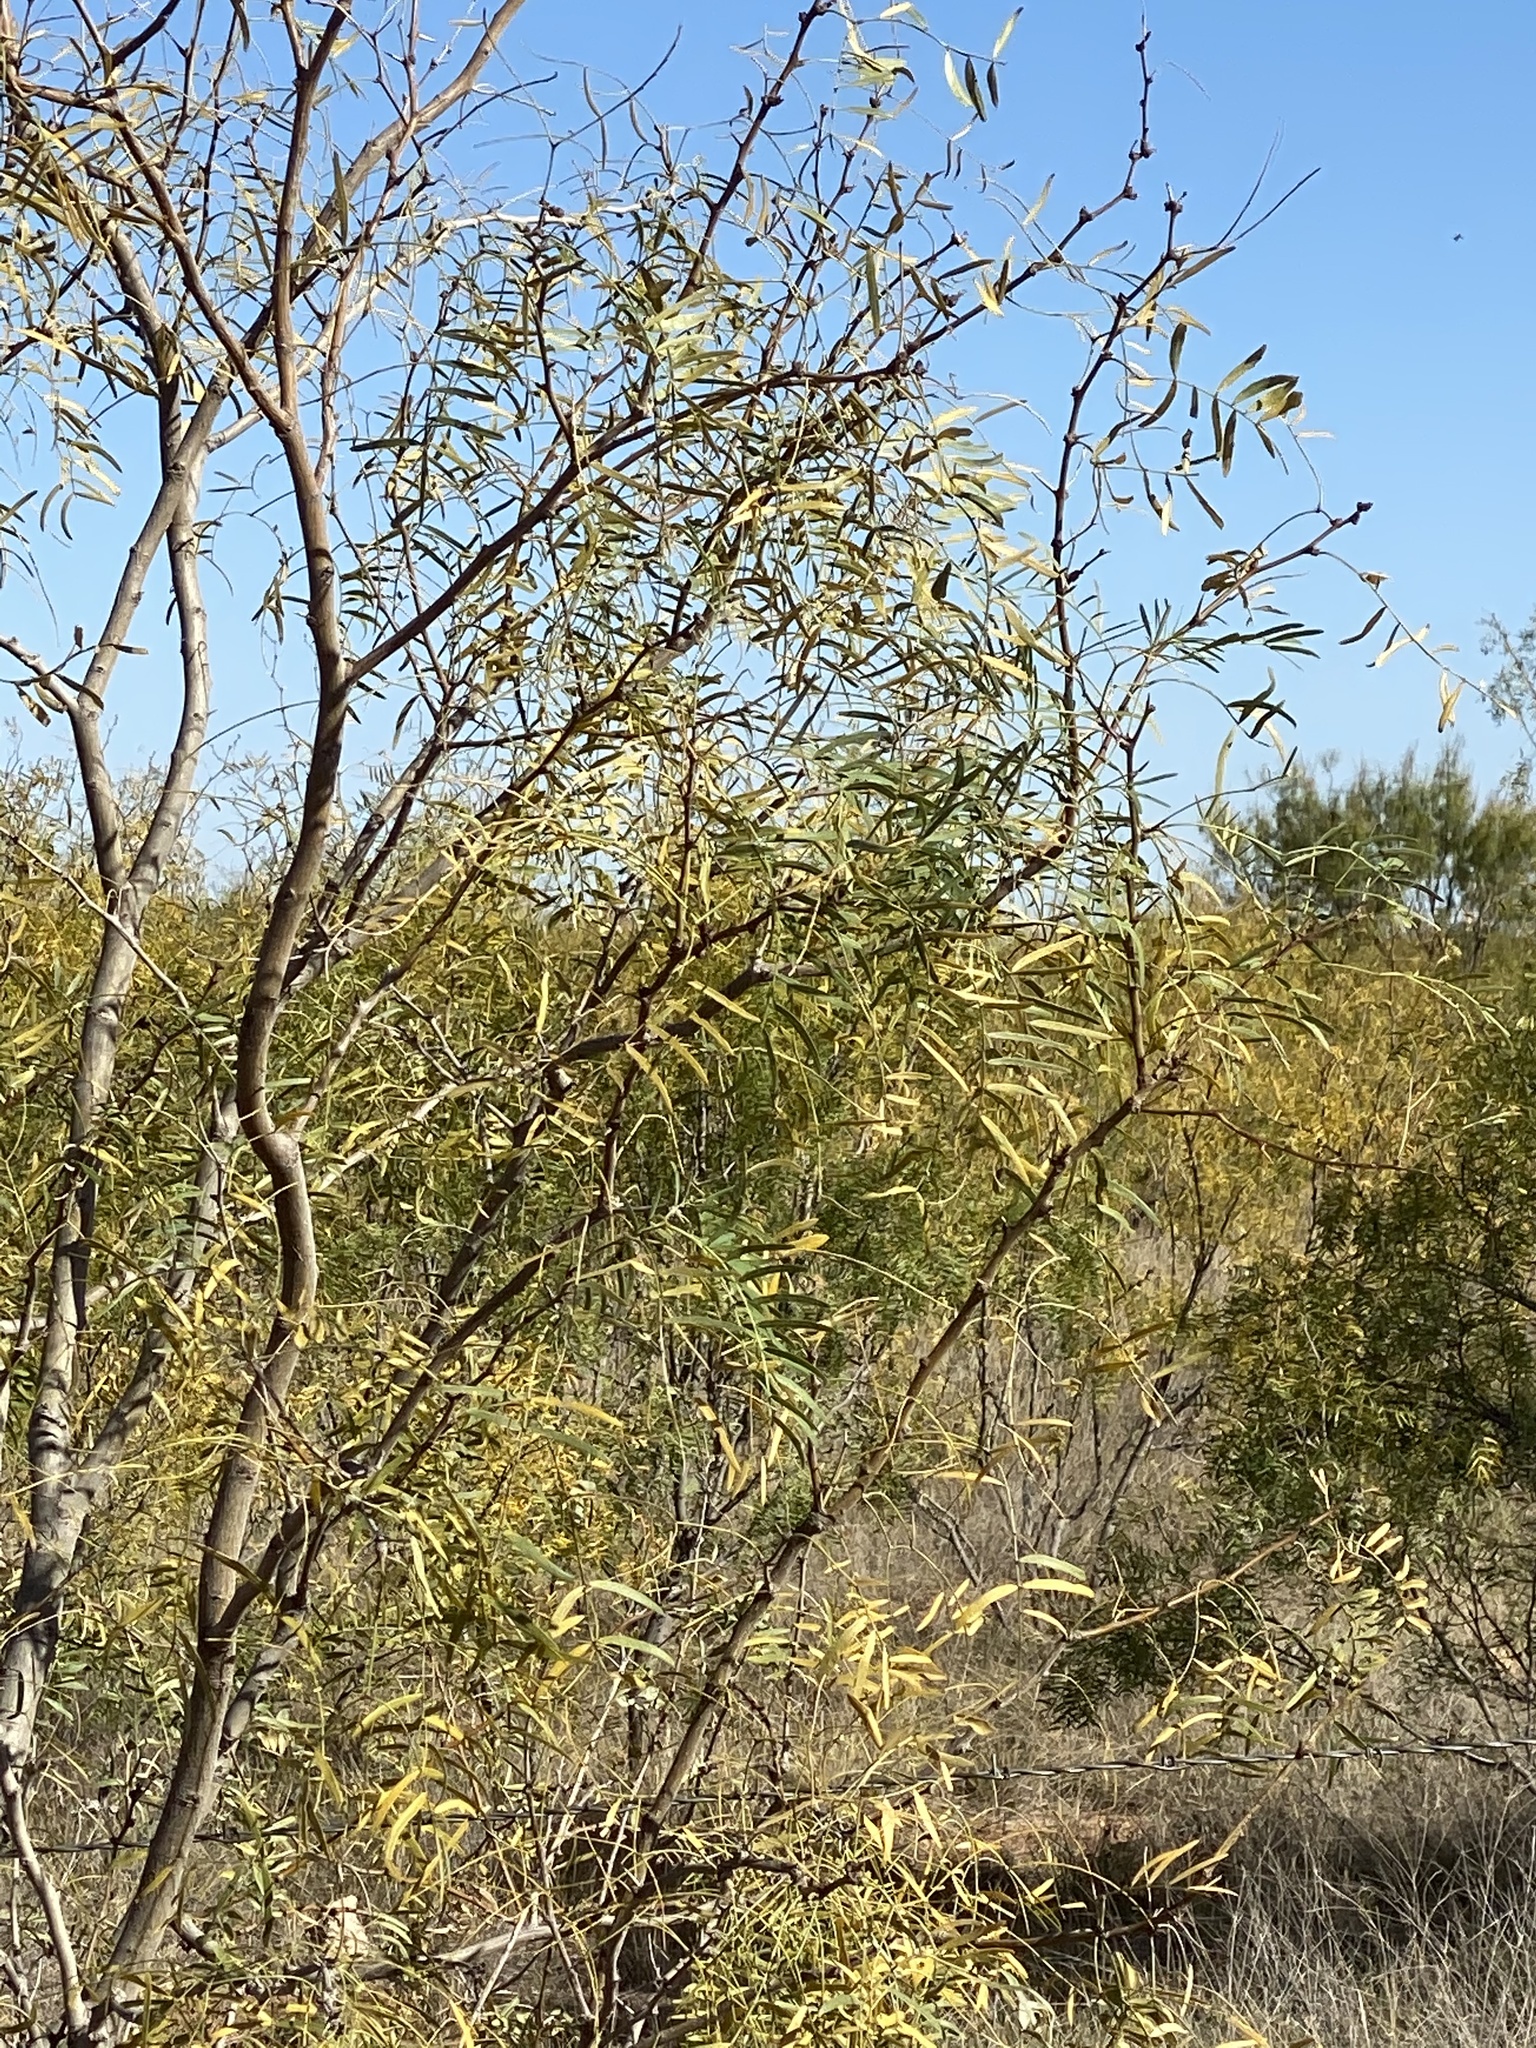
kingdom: Plantae
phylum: Tracheophyta
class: Magnoliopsida
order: Fabales
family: Fabaceae
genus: Prosopis
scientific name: Prosopis glandulosa
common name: Honey mesquite
